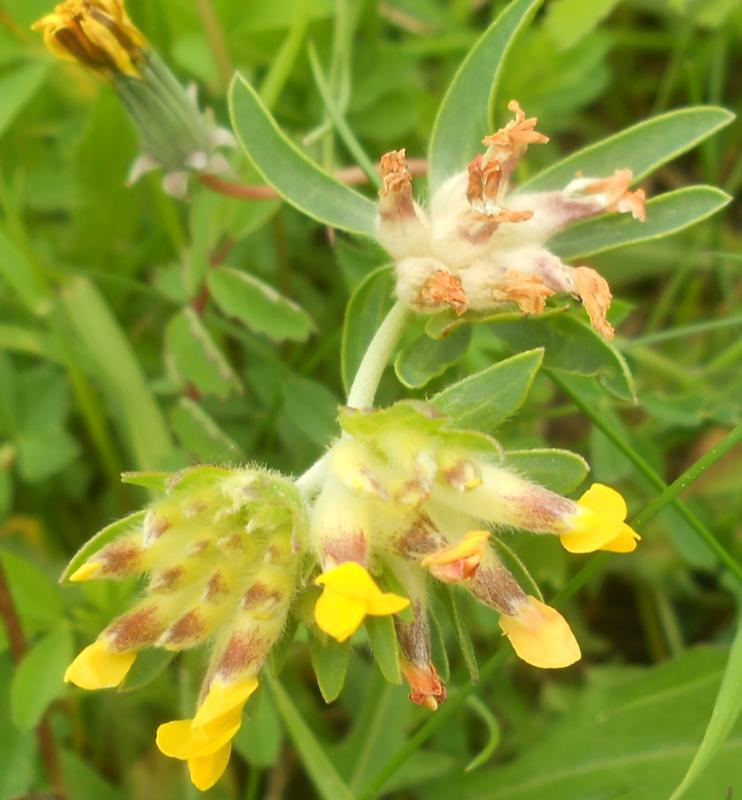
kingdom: Plantae
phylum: Tracheophyta
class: Magnoliopsida
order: Fabales
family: Fabaceae
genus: Anthyllis
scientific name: Anthyllis vulneraria
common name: Kidney vetch
